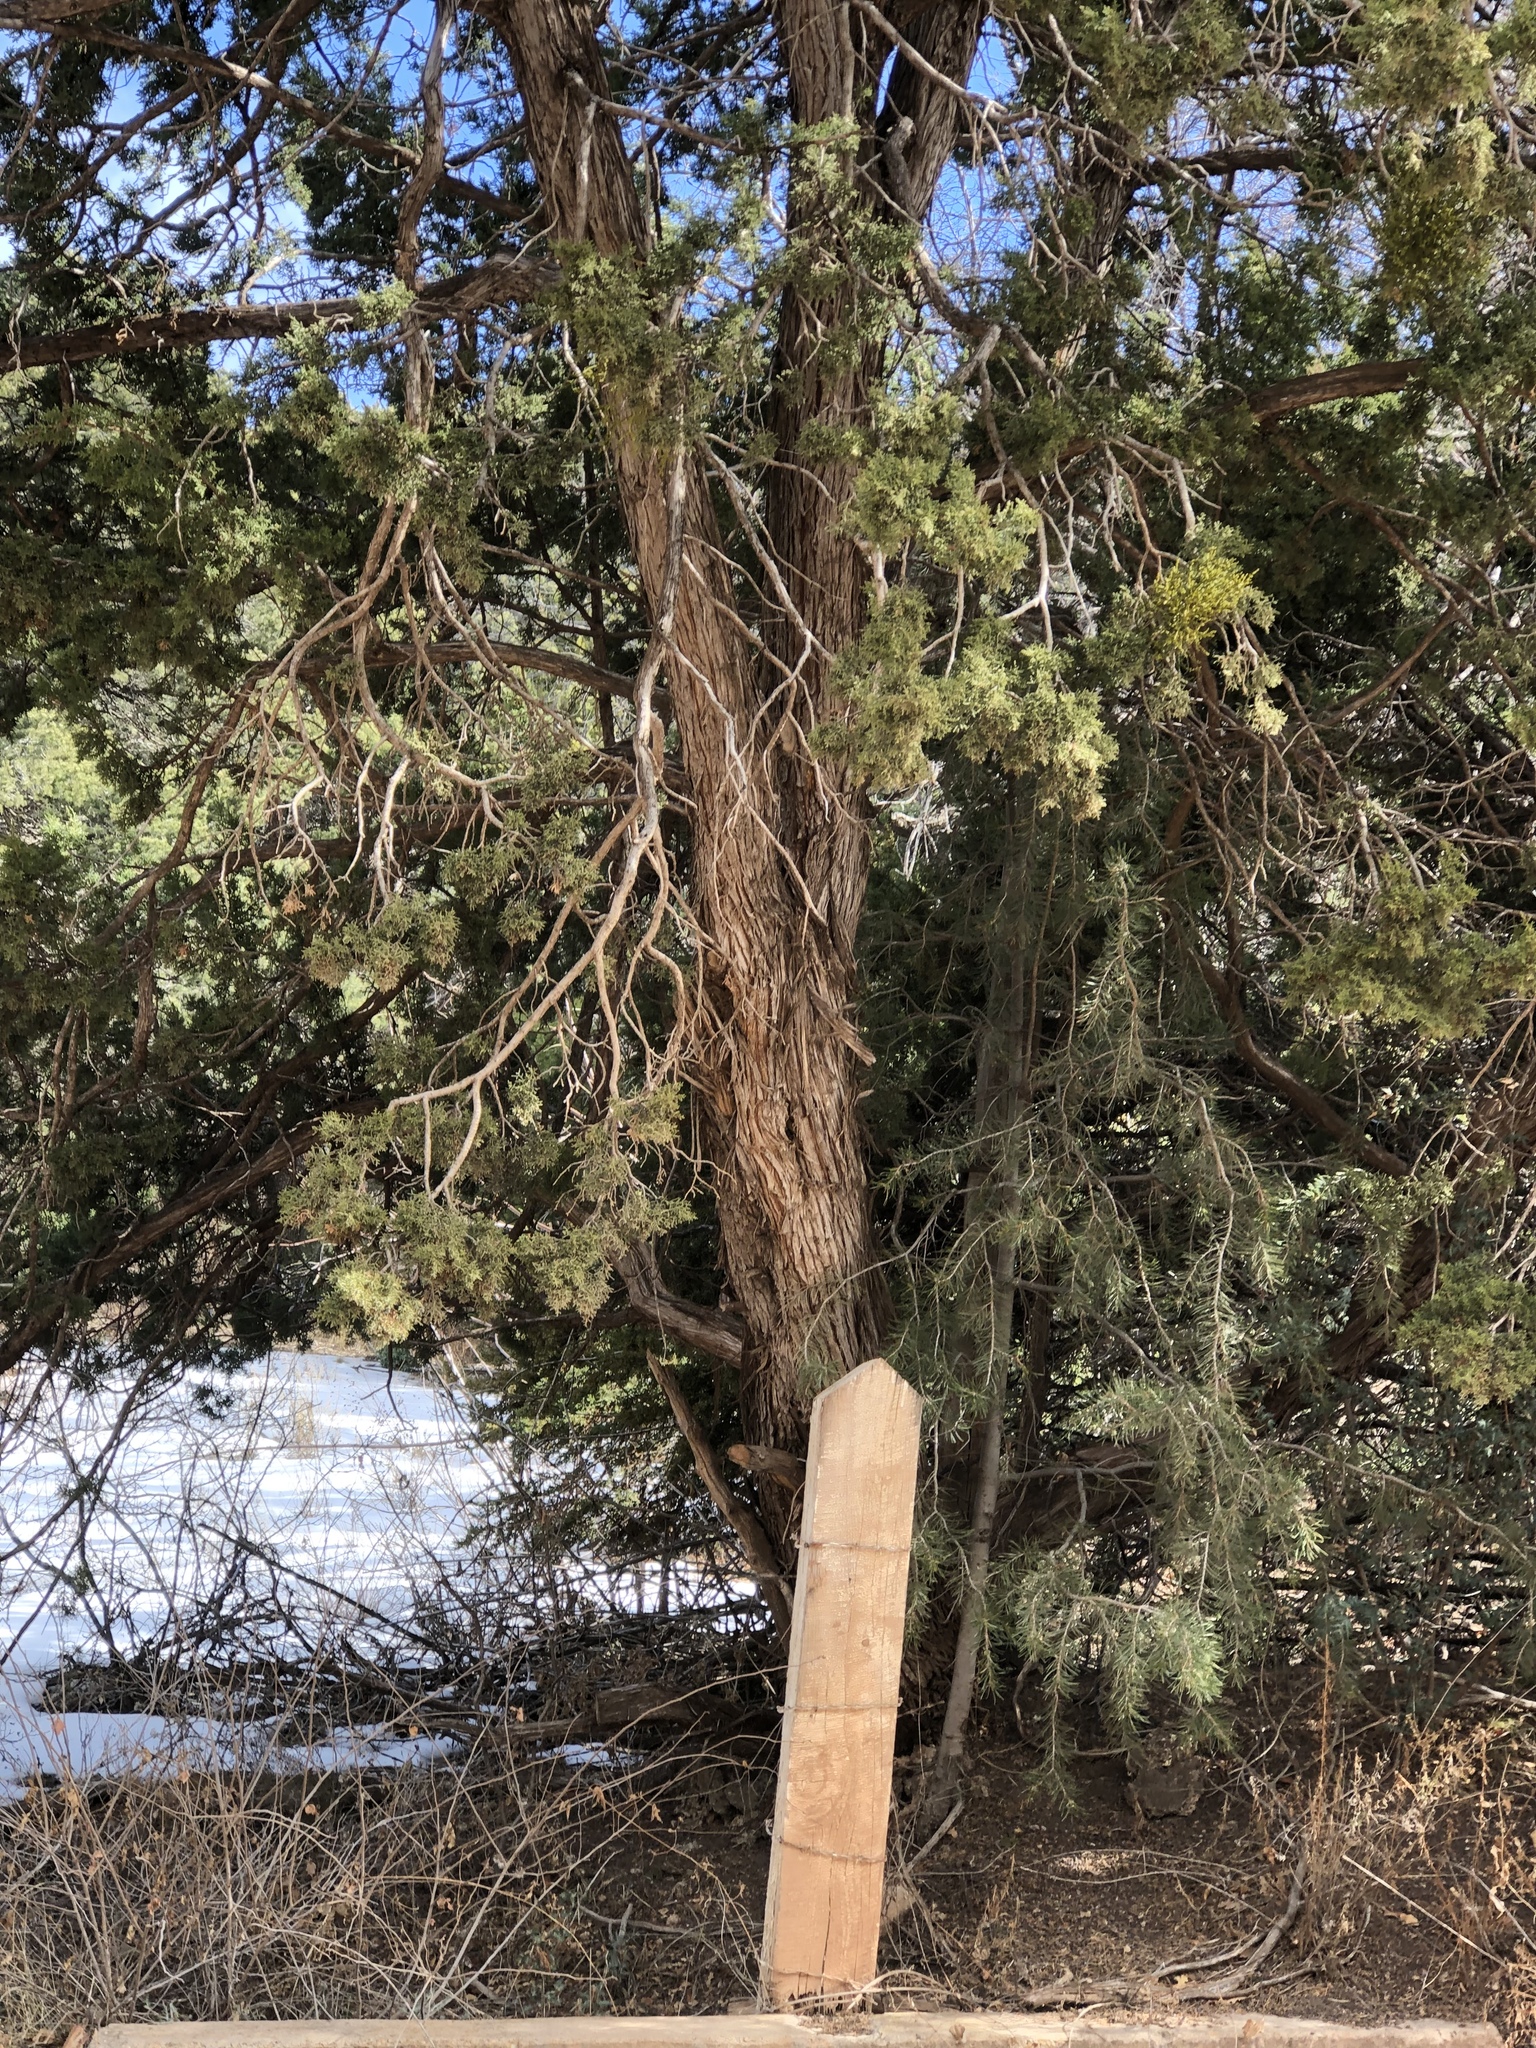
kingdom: Plantae
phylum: Tracheophyta
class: Pinopsida
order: Pinales
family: Cupressaceae
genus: Juniperus
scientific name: Juniperus monosperma
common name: One-seed juniper
